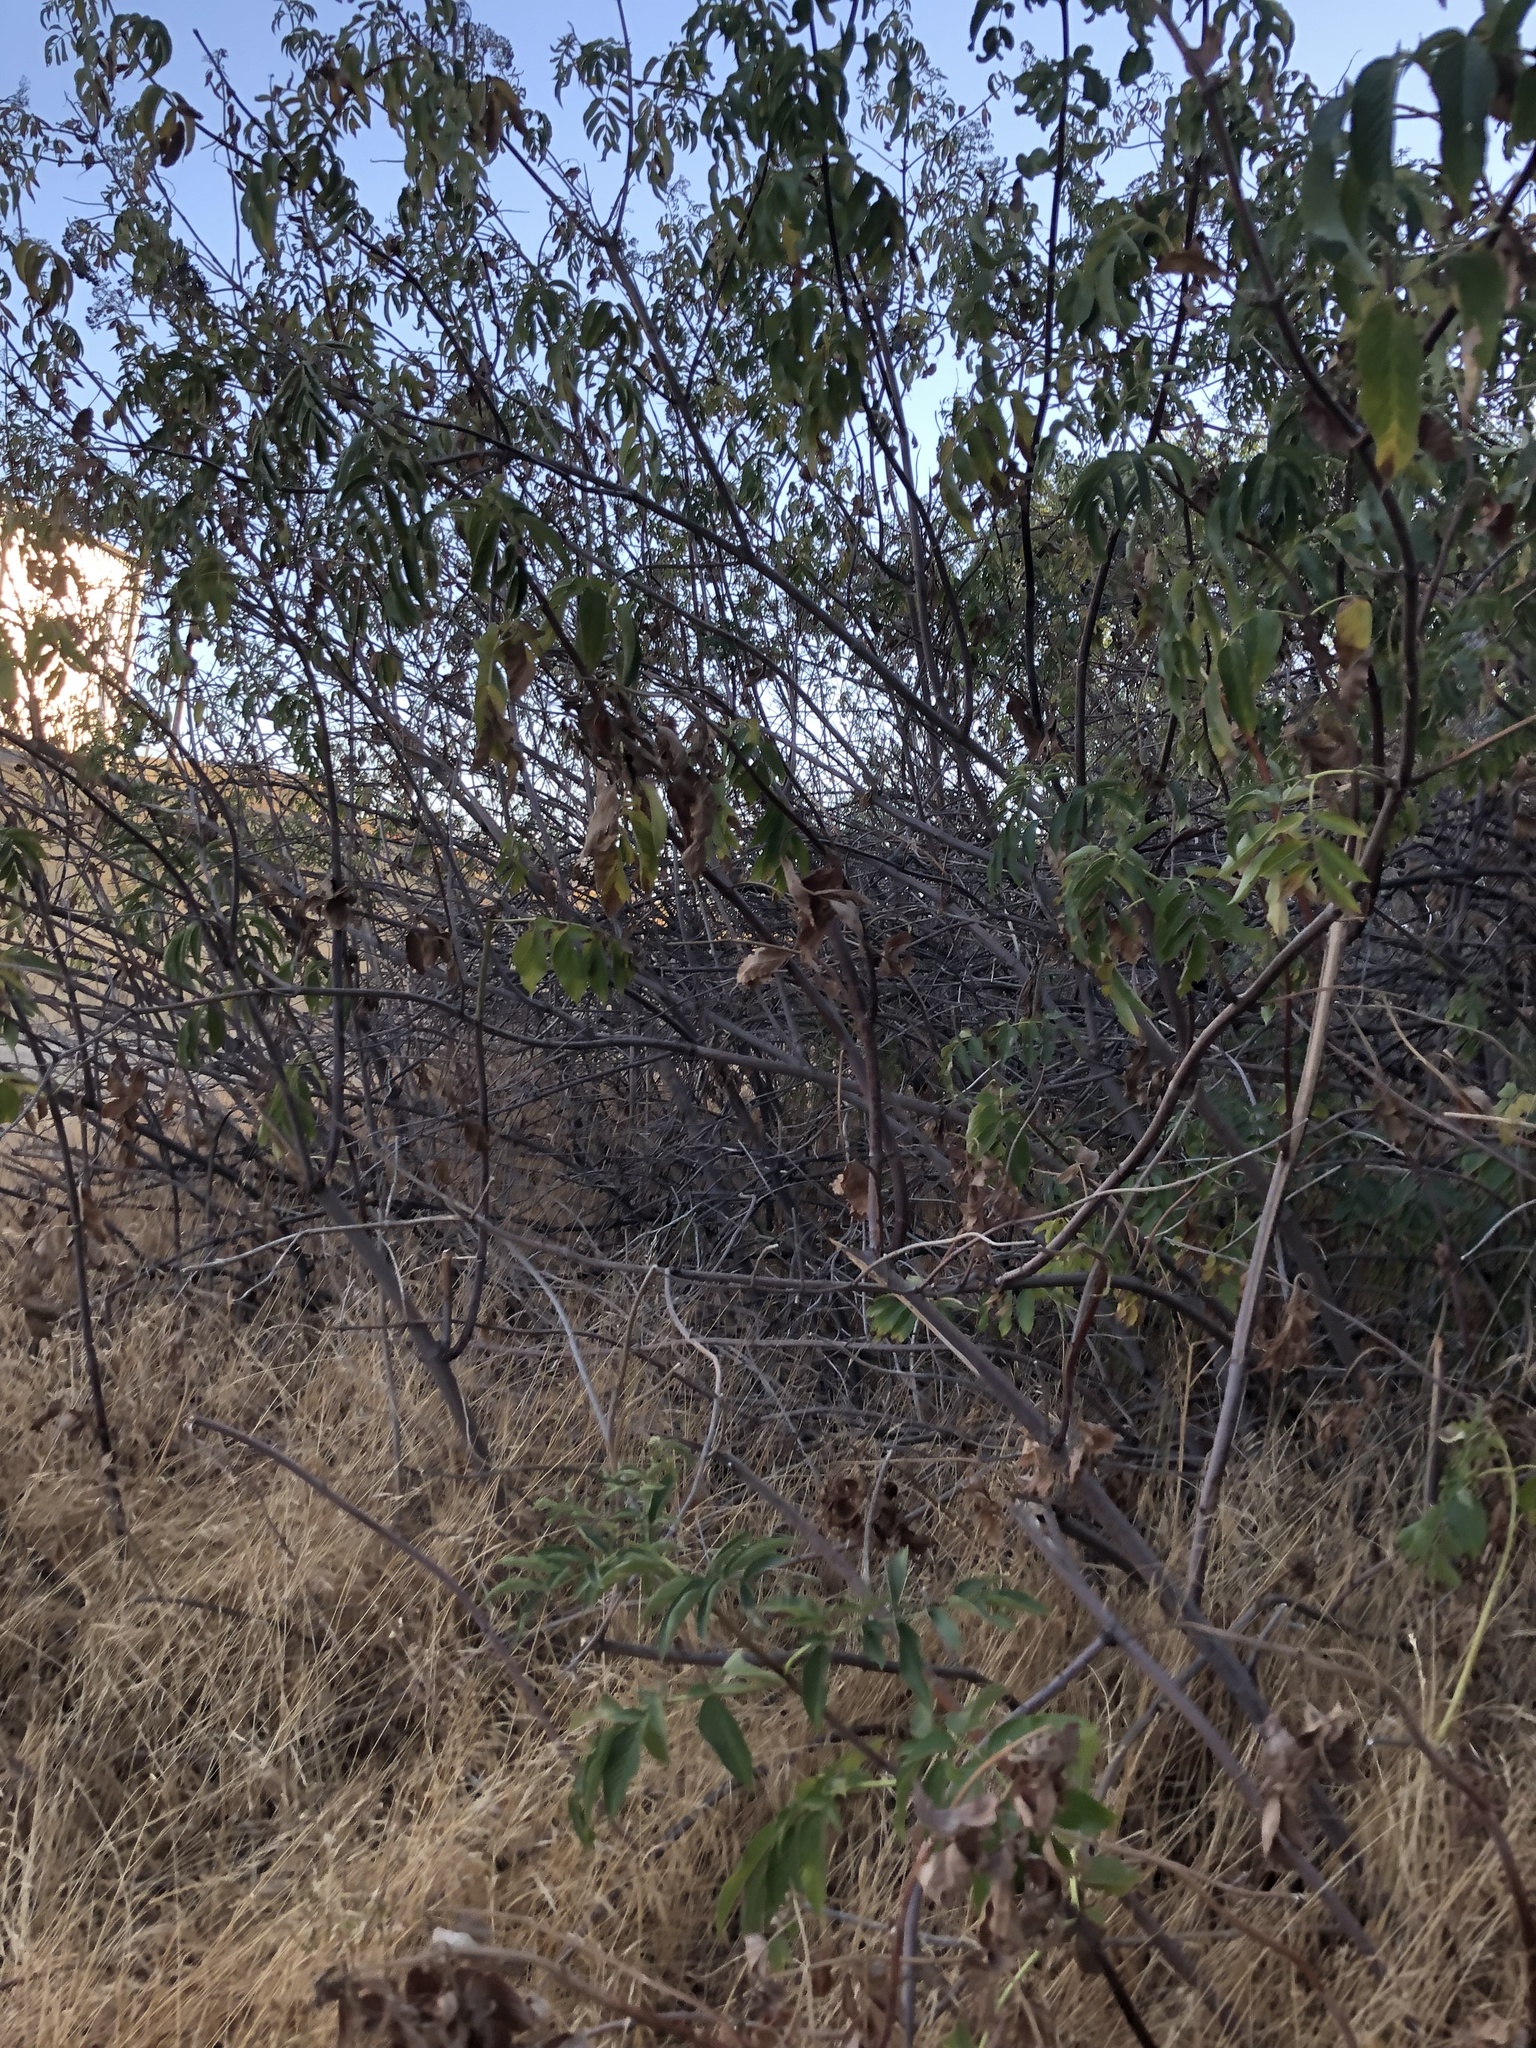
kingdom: Plantae
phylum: Tracheophyta
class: Magnoliopsida
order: Dipsacales
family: Viburnaceae
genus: Sambucus
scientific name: Sambucus cerulea
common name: Blue elder
